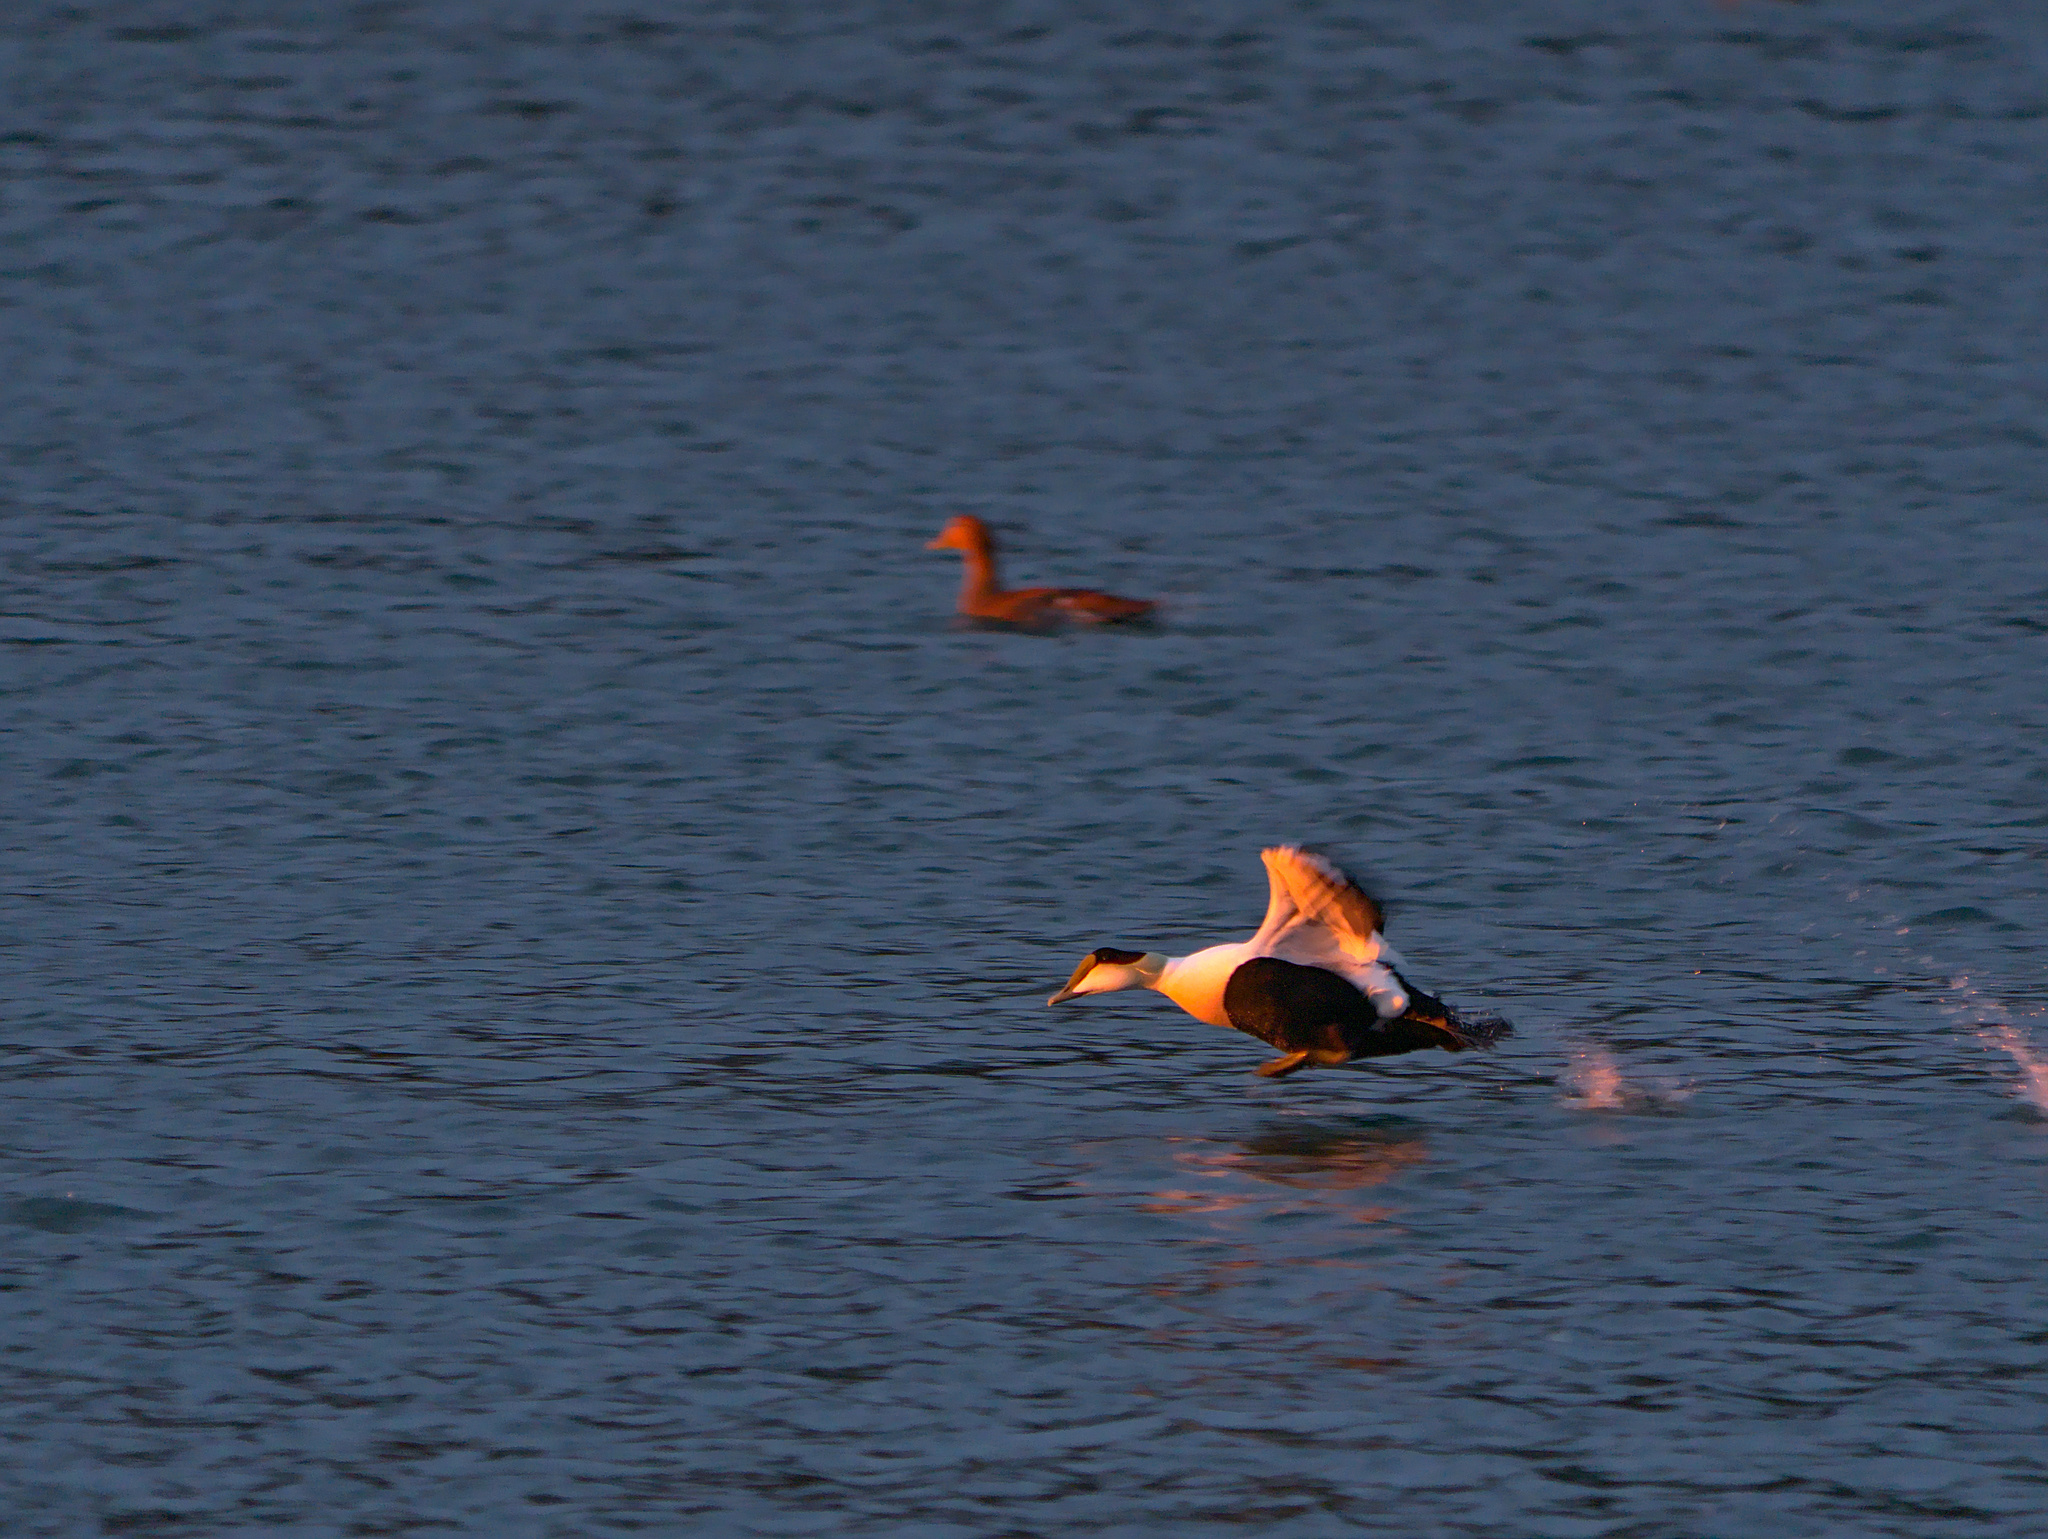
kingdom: Animalia
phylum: Chordata
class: Aves
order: Anseriformes
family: Anatidae
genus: Somateria
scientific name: Somateria mollissima
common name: Common eider
